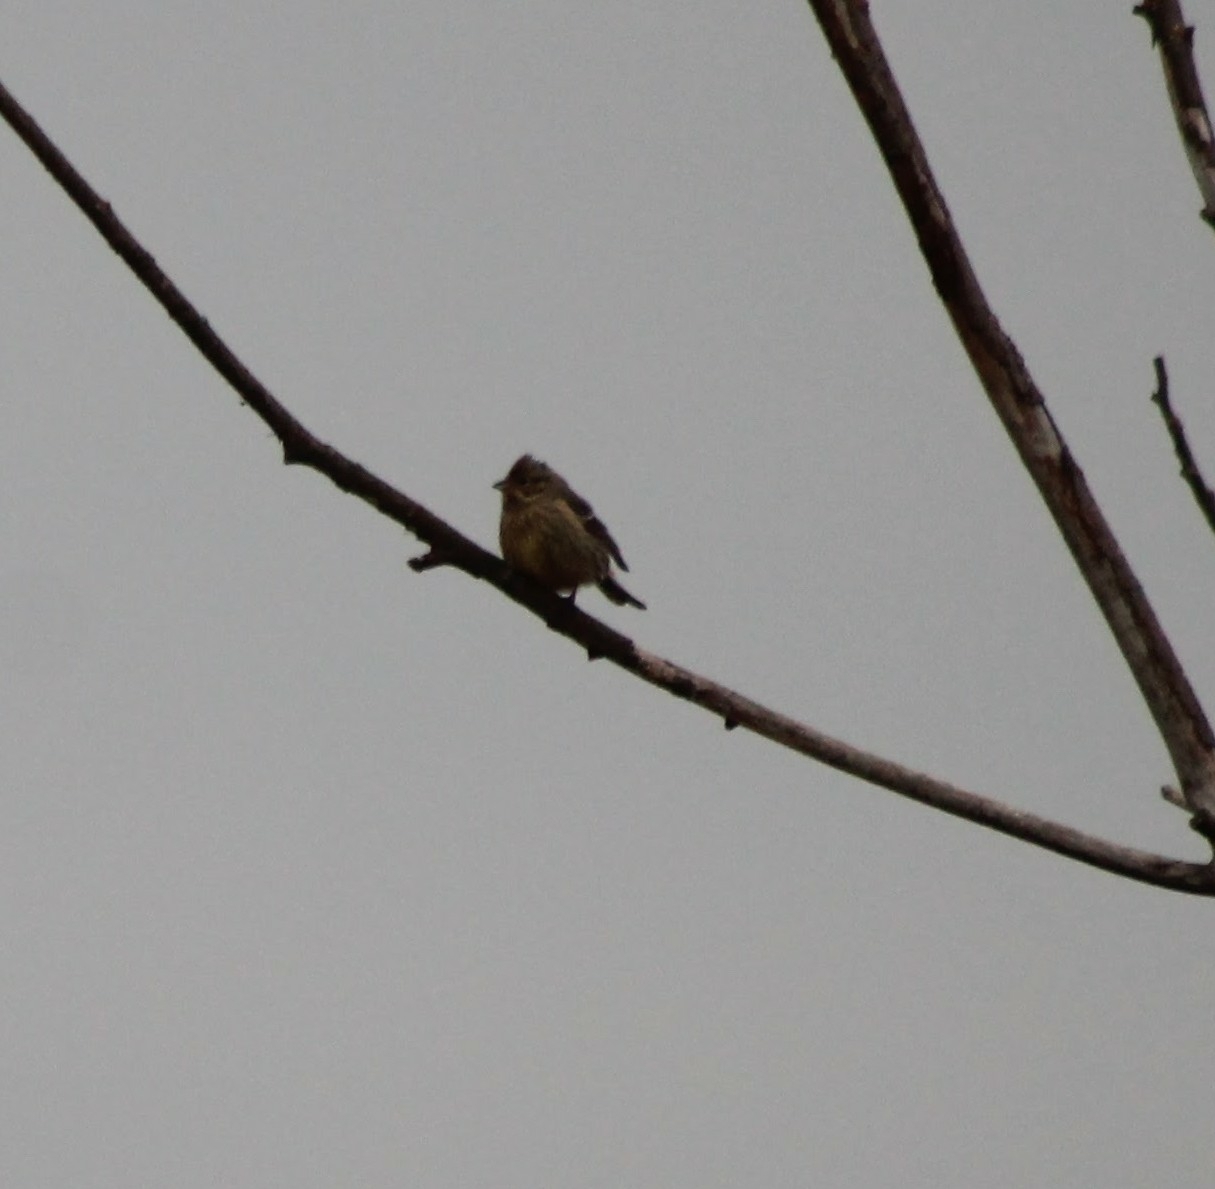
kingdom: Animalia
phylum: Chordata
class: Aves
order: Passeriformes
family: Emberizidae
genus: Emberiza
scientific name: Emberiza citrinella
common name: Yellowhammer
